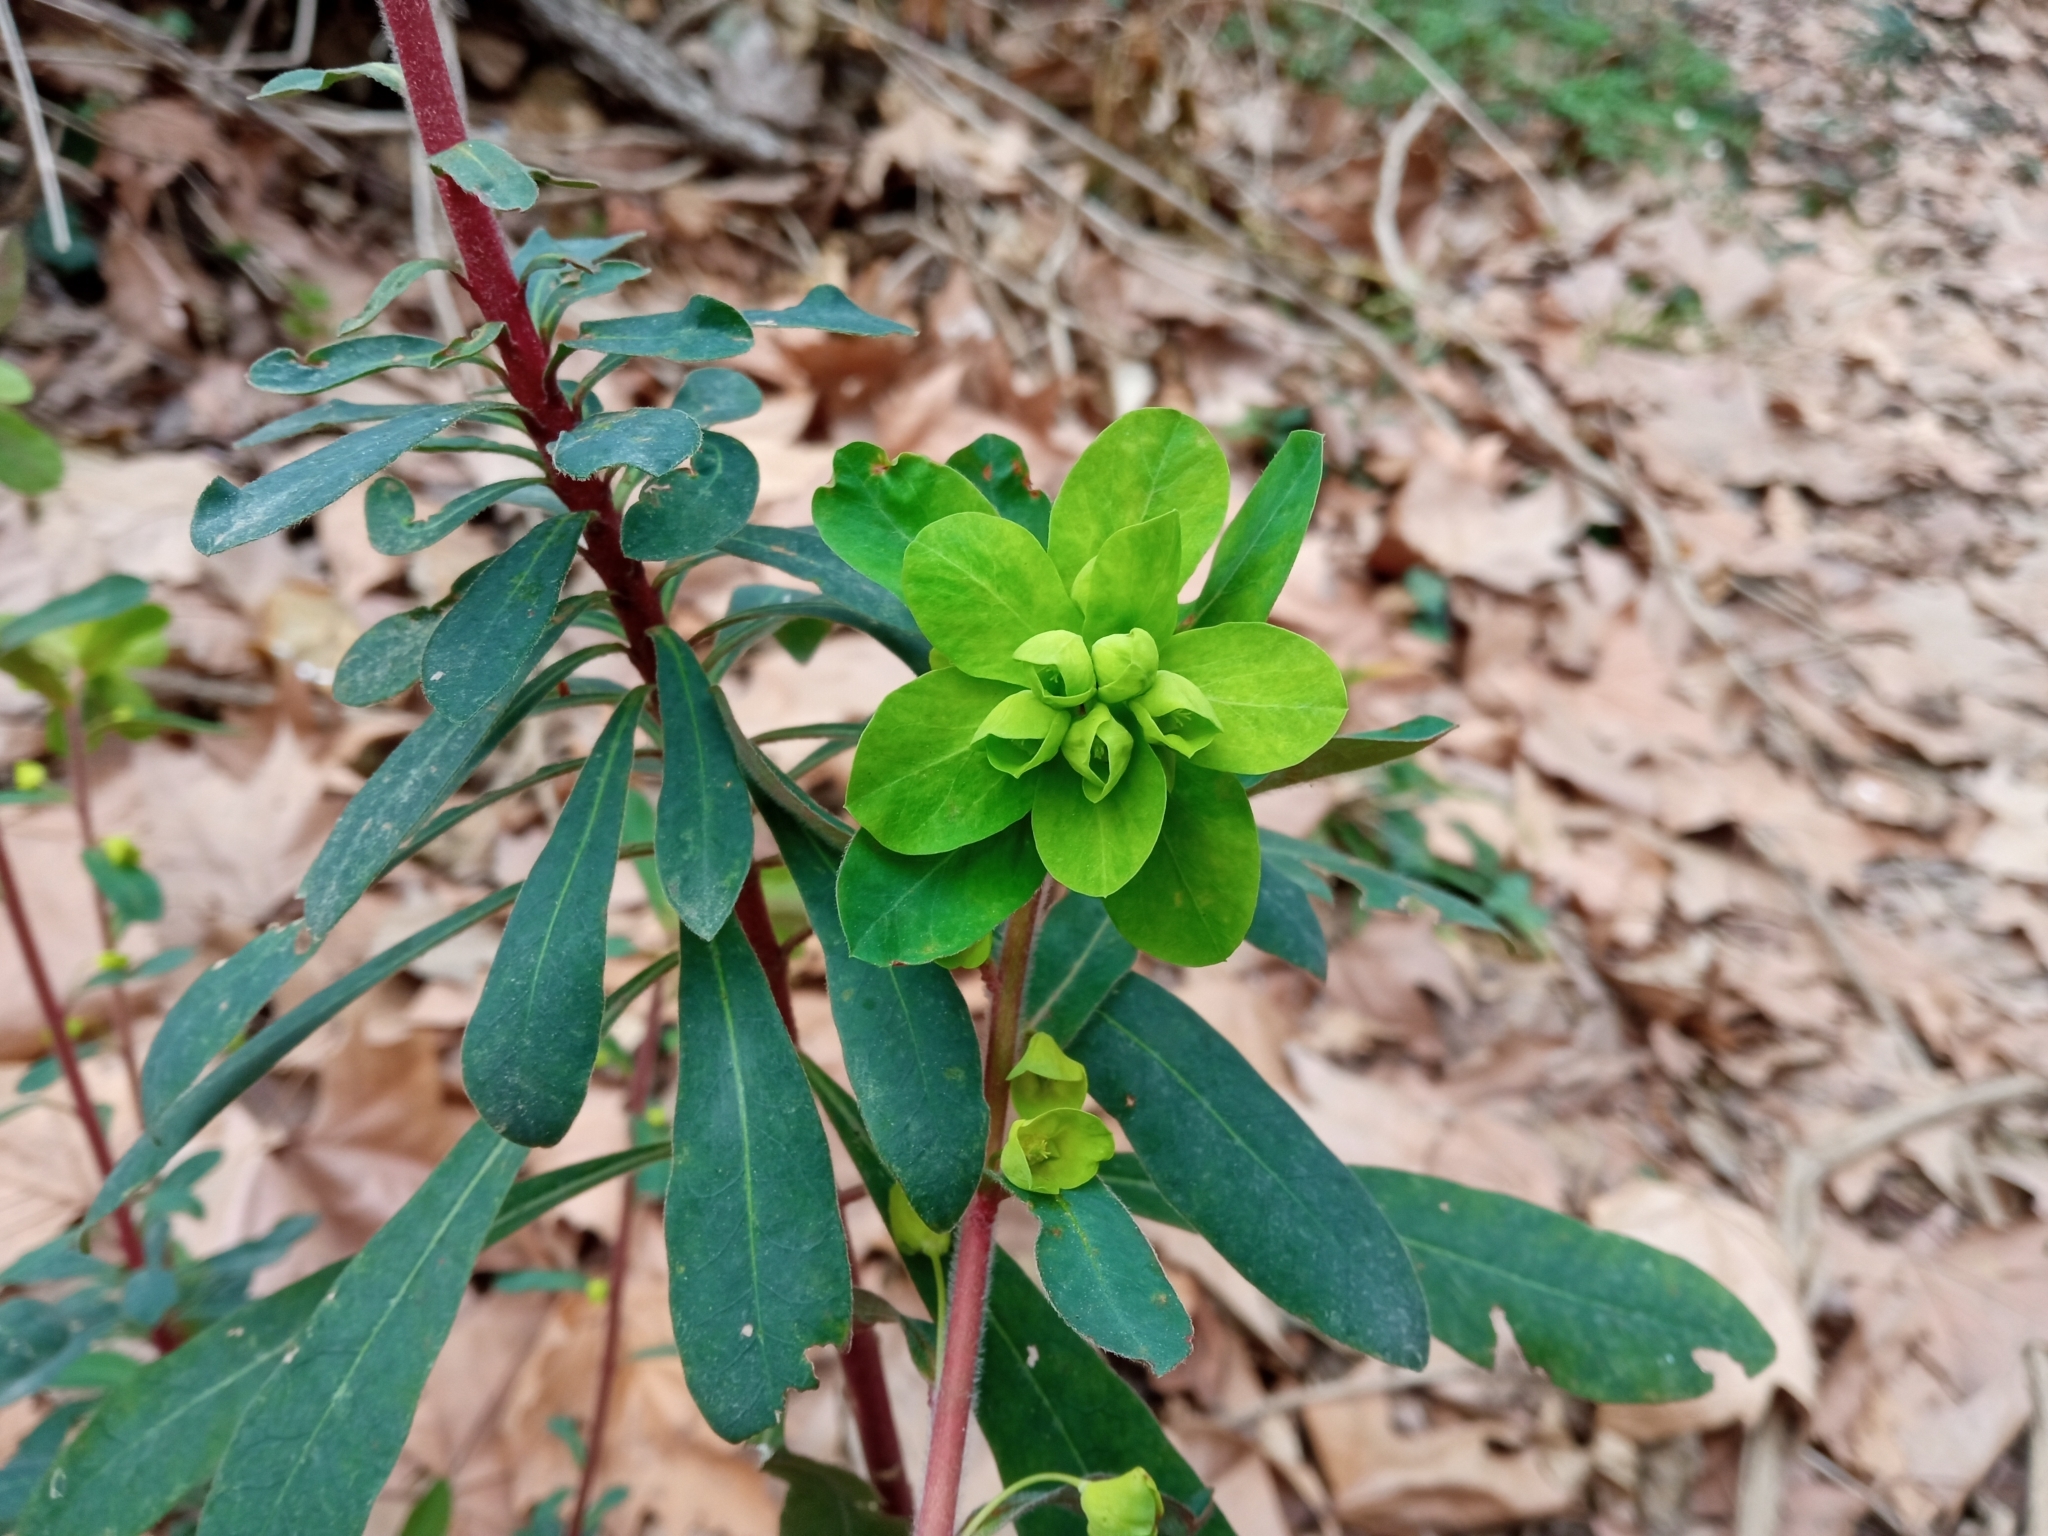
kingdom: Plantae
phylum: Tracheophyta
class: Magnoliopsida
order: Malpighiales
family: Euphorbiaceae
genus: Euphorbia
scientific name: Euphorbia amygdaloides
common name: Wood spurge
